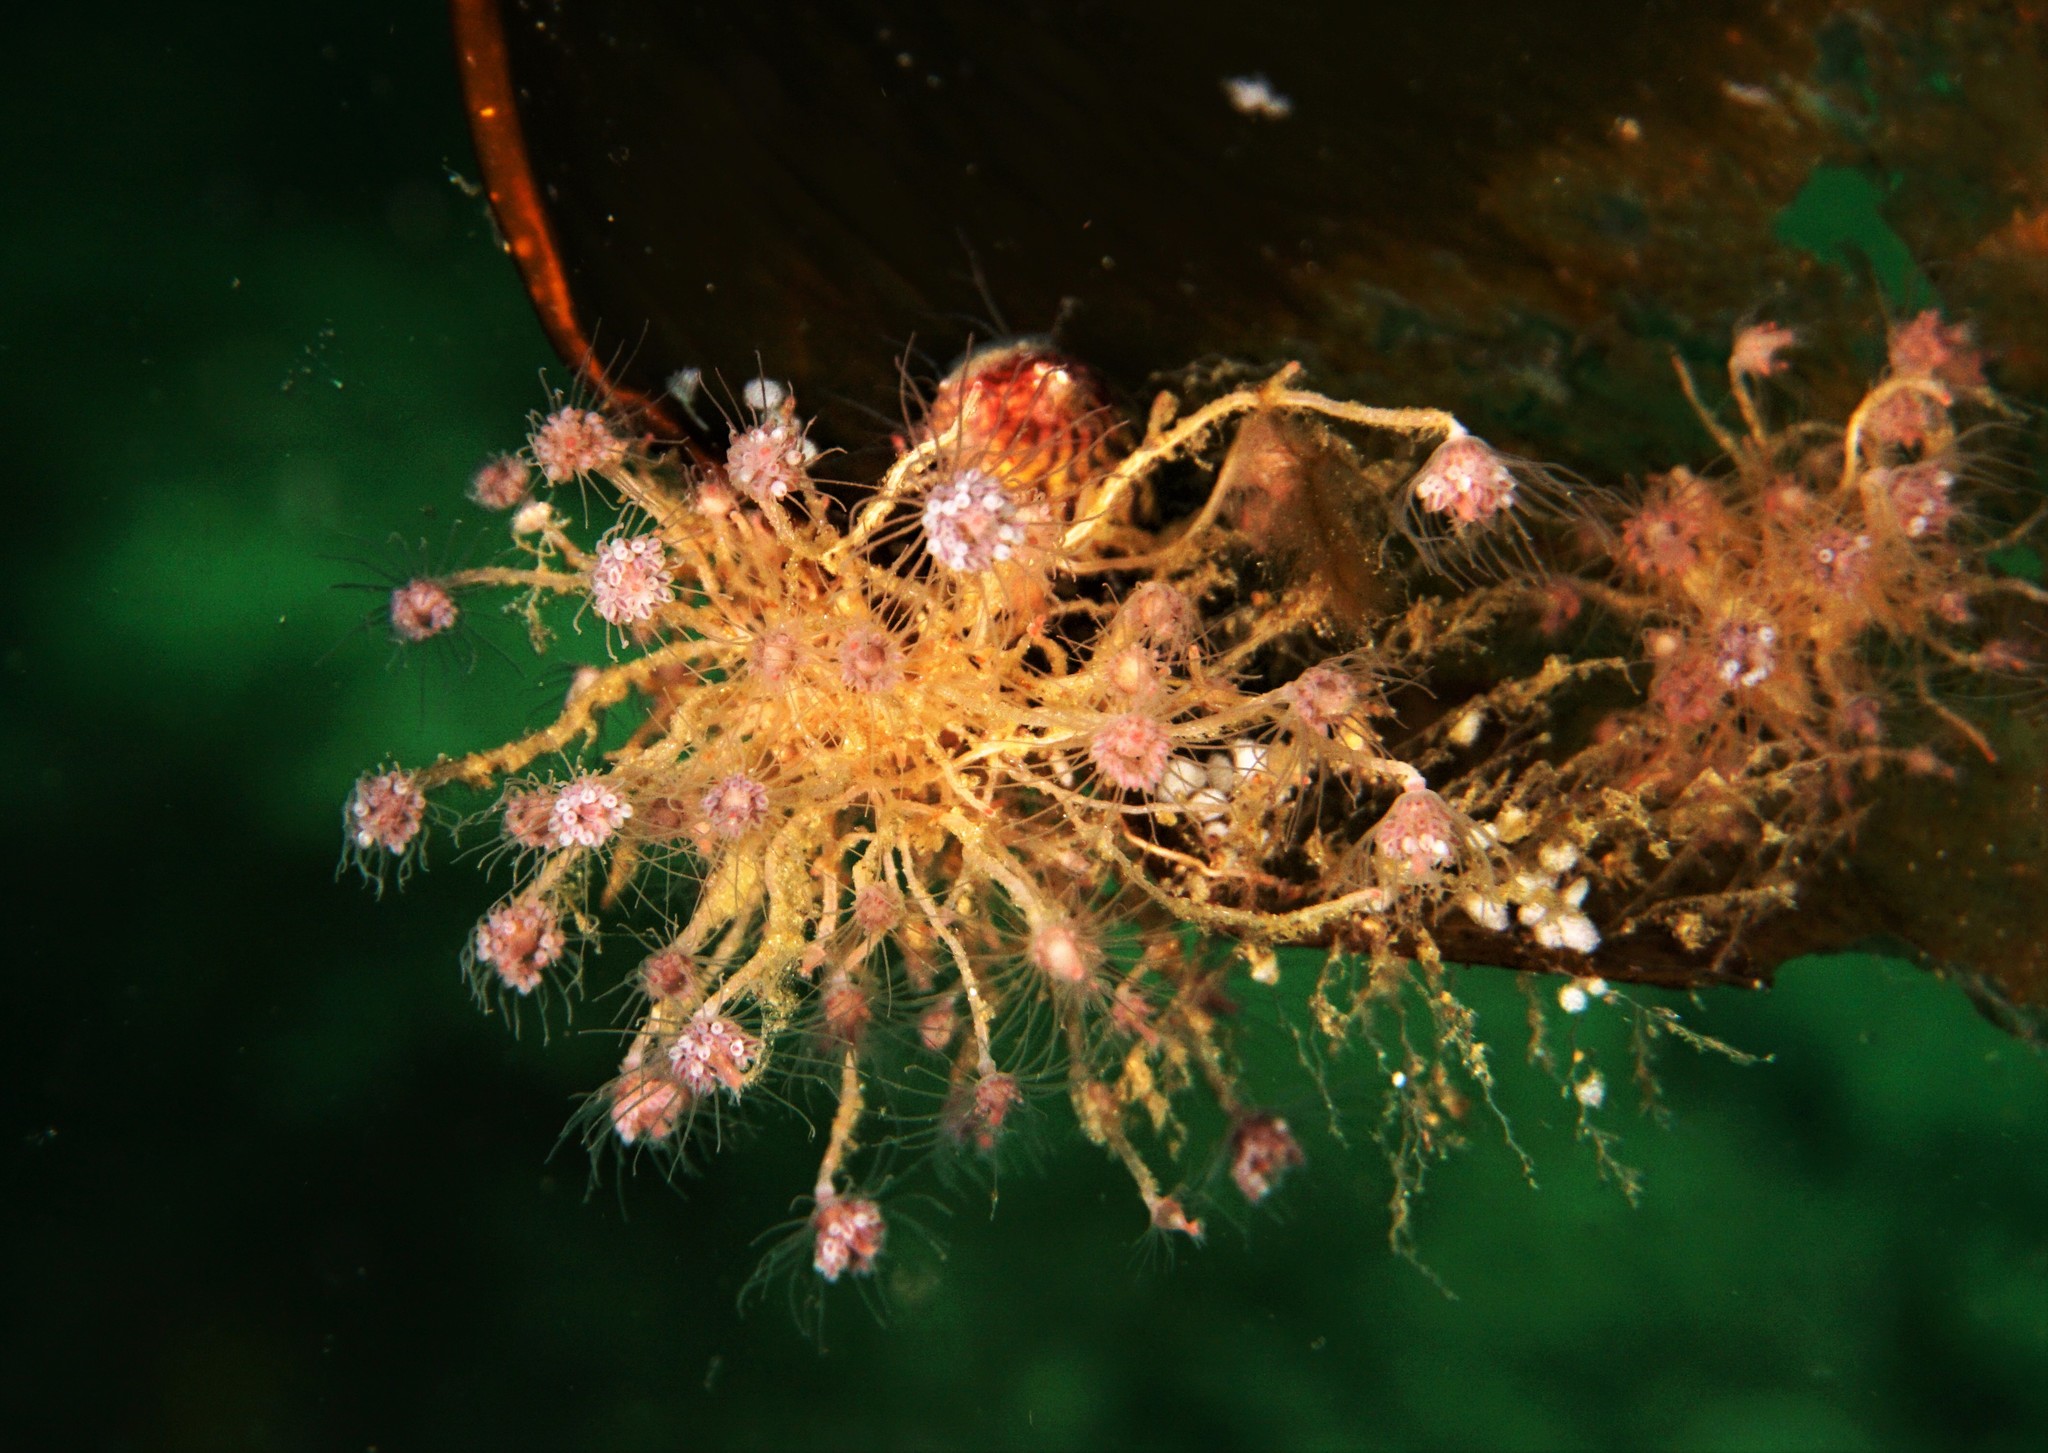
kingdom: Animalia
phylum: Cnidaria
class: Hydrozoa
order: Anthoathecata
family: Tubulariidae
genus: Ectopleura
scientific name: Ectopleura larynx
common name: Ringed tubularia
